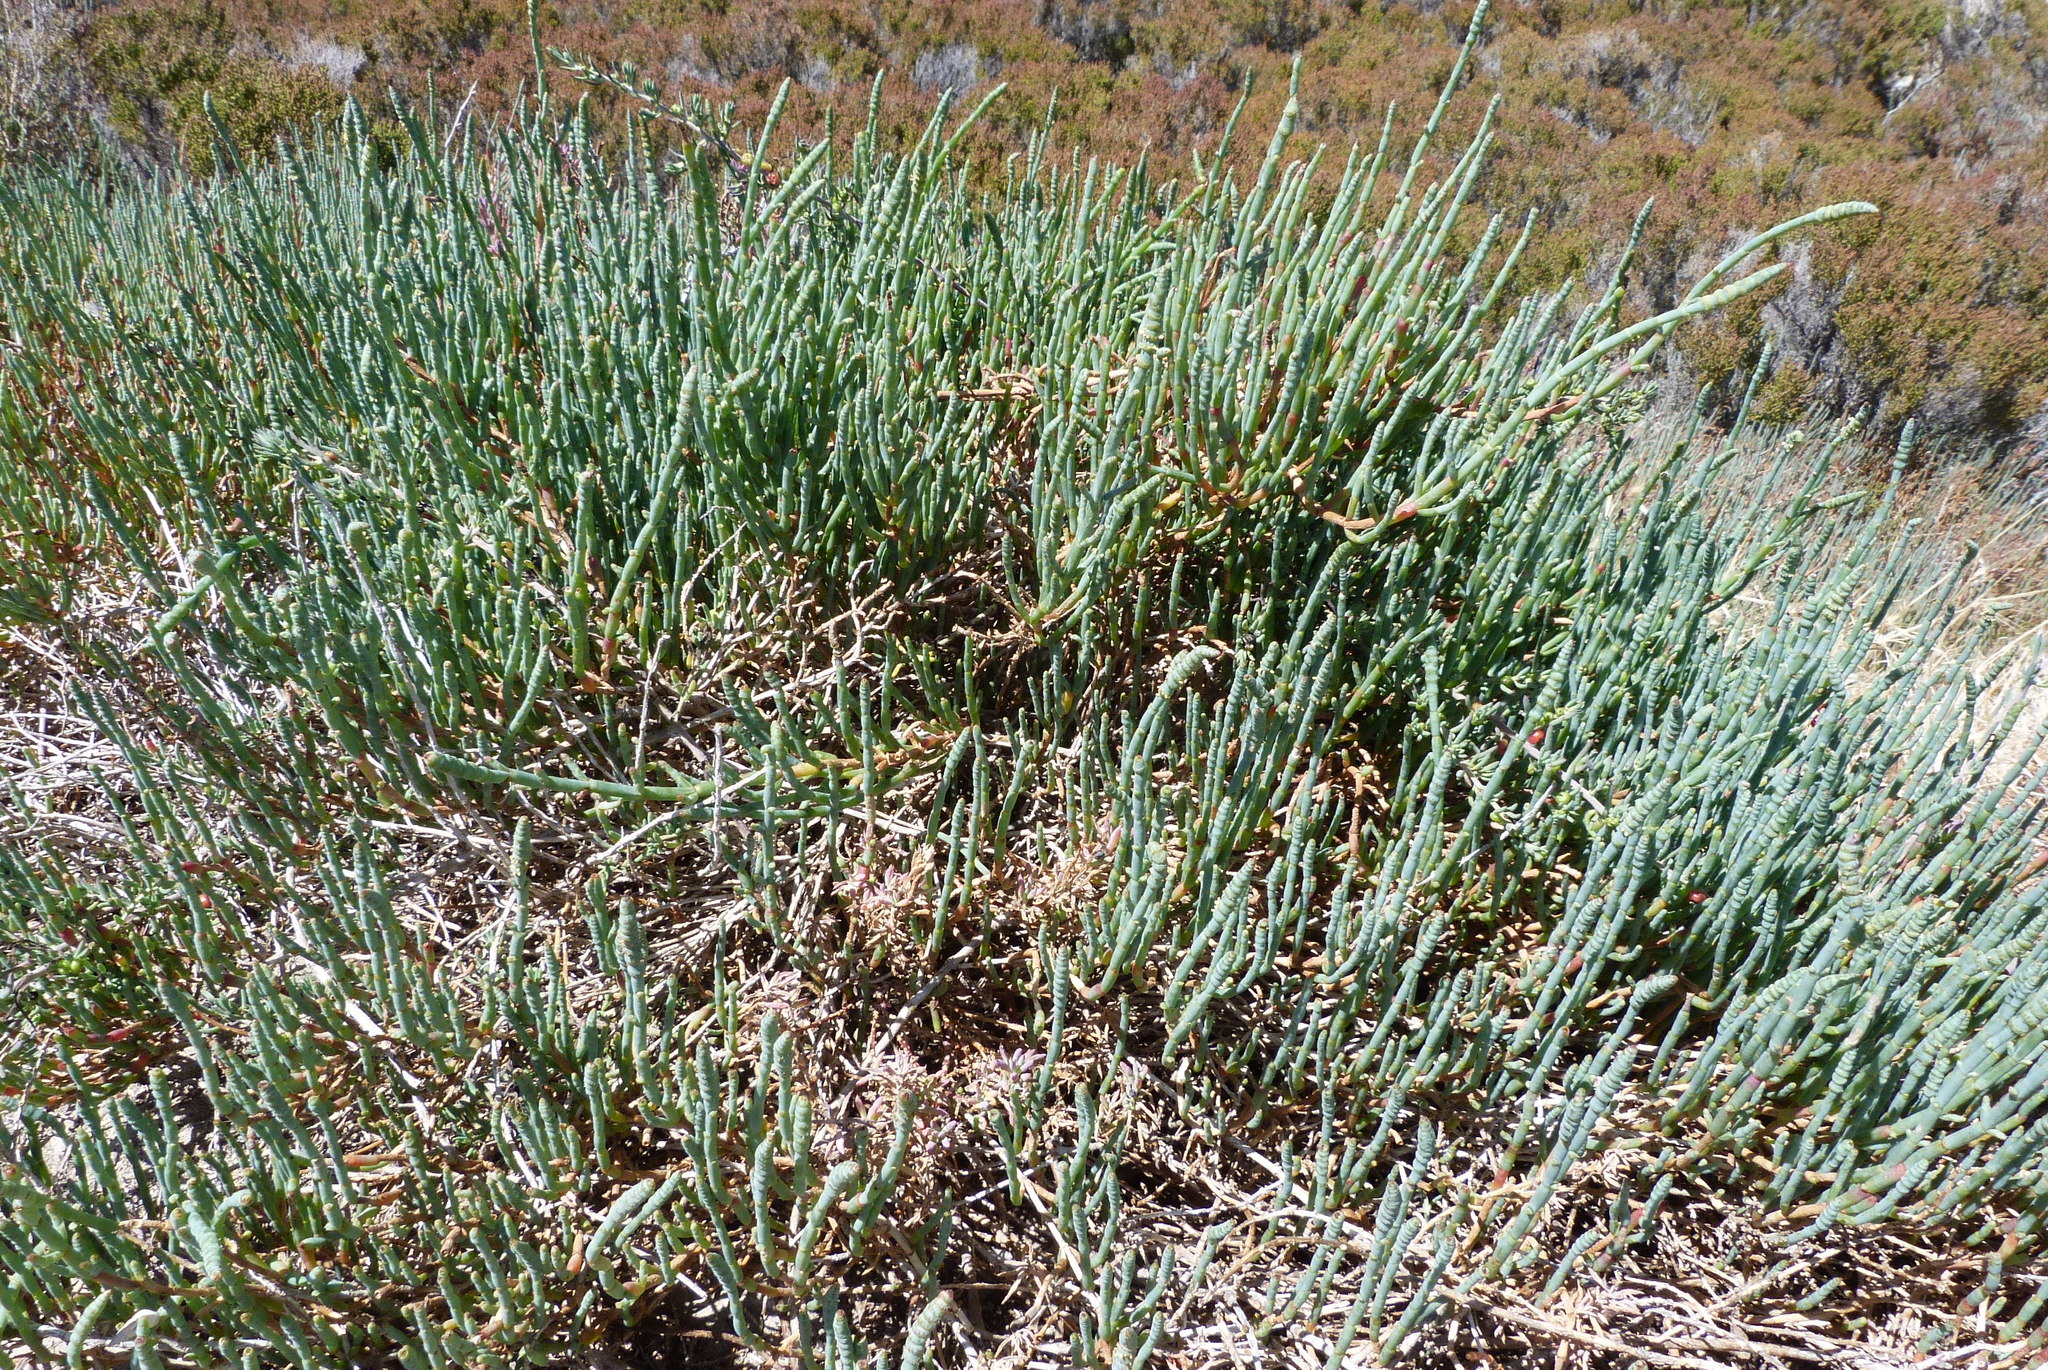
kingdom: Plantae
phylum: Tracheophyta
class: Magnoliopsida
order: Caryophyllales
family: Amaranthaceae
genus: Salicornia
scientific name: Salicornia quinqueflora
